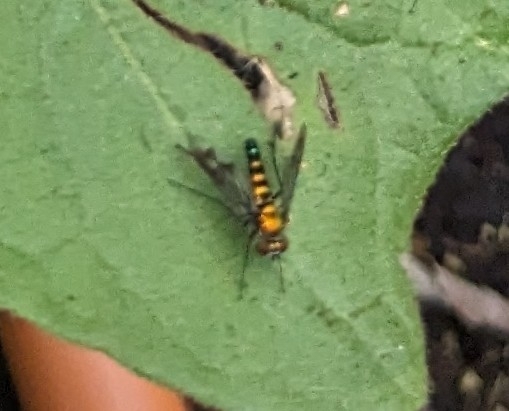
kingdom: Animalia
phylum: Arthropoda
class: Insecta
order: Diptera
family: Dolichopodidae
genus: Condylostylus
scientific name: Condylostylus patibulatus
